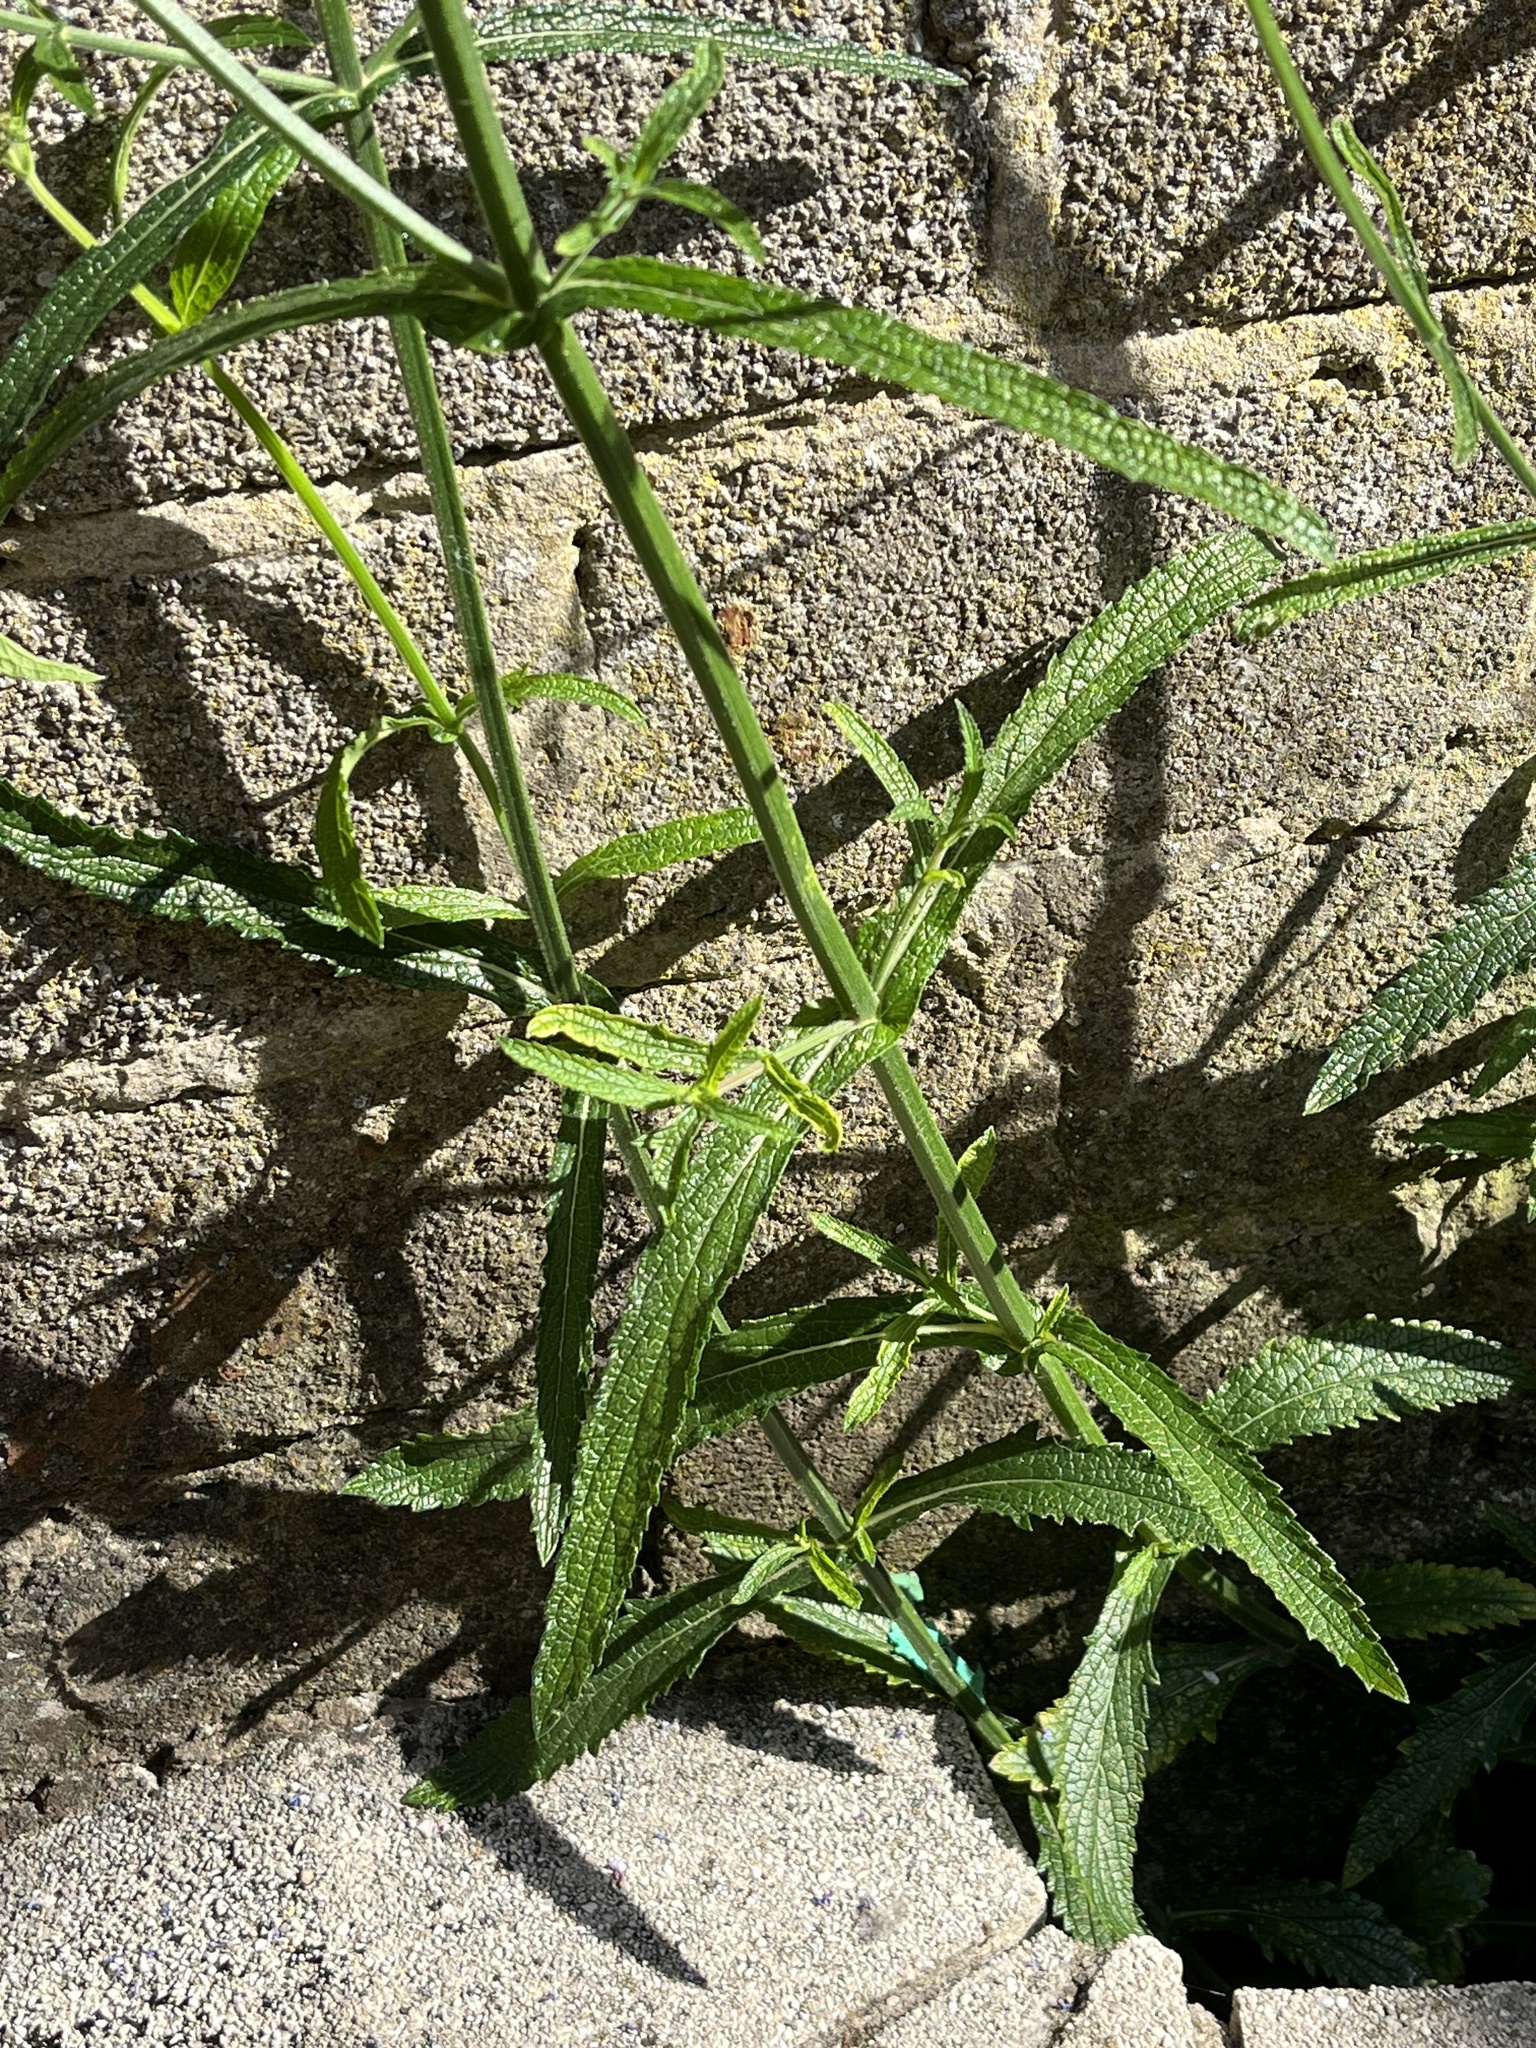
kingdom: Plantae
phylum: Tracheophyta
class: Magnoliopsida
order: Lamiales
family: Verbenaceae
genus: Verbena
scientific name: Verbena bonariensis
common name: Purpletop vervain
